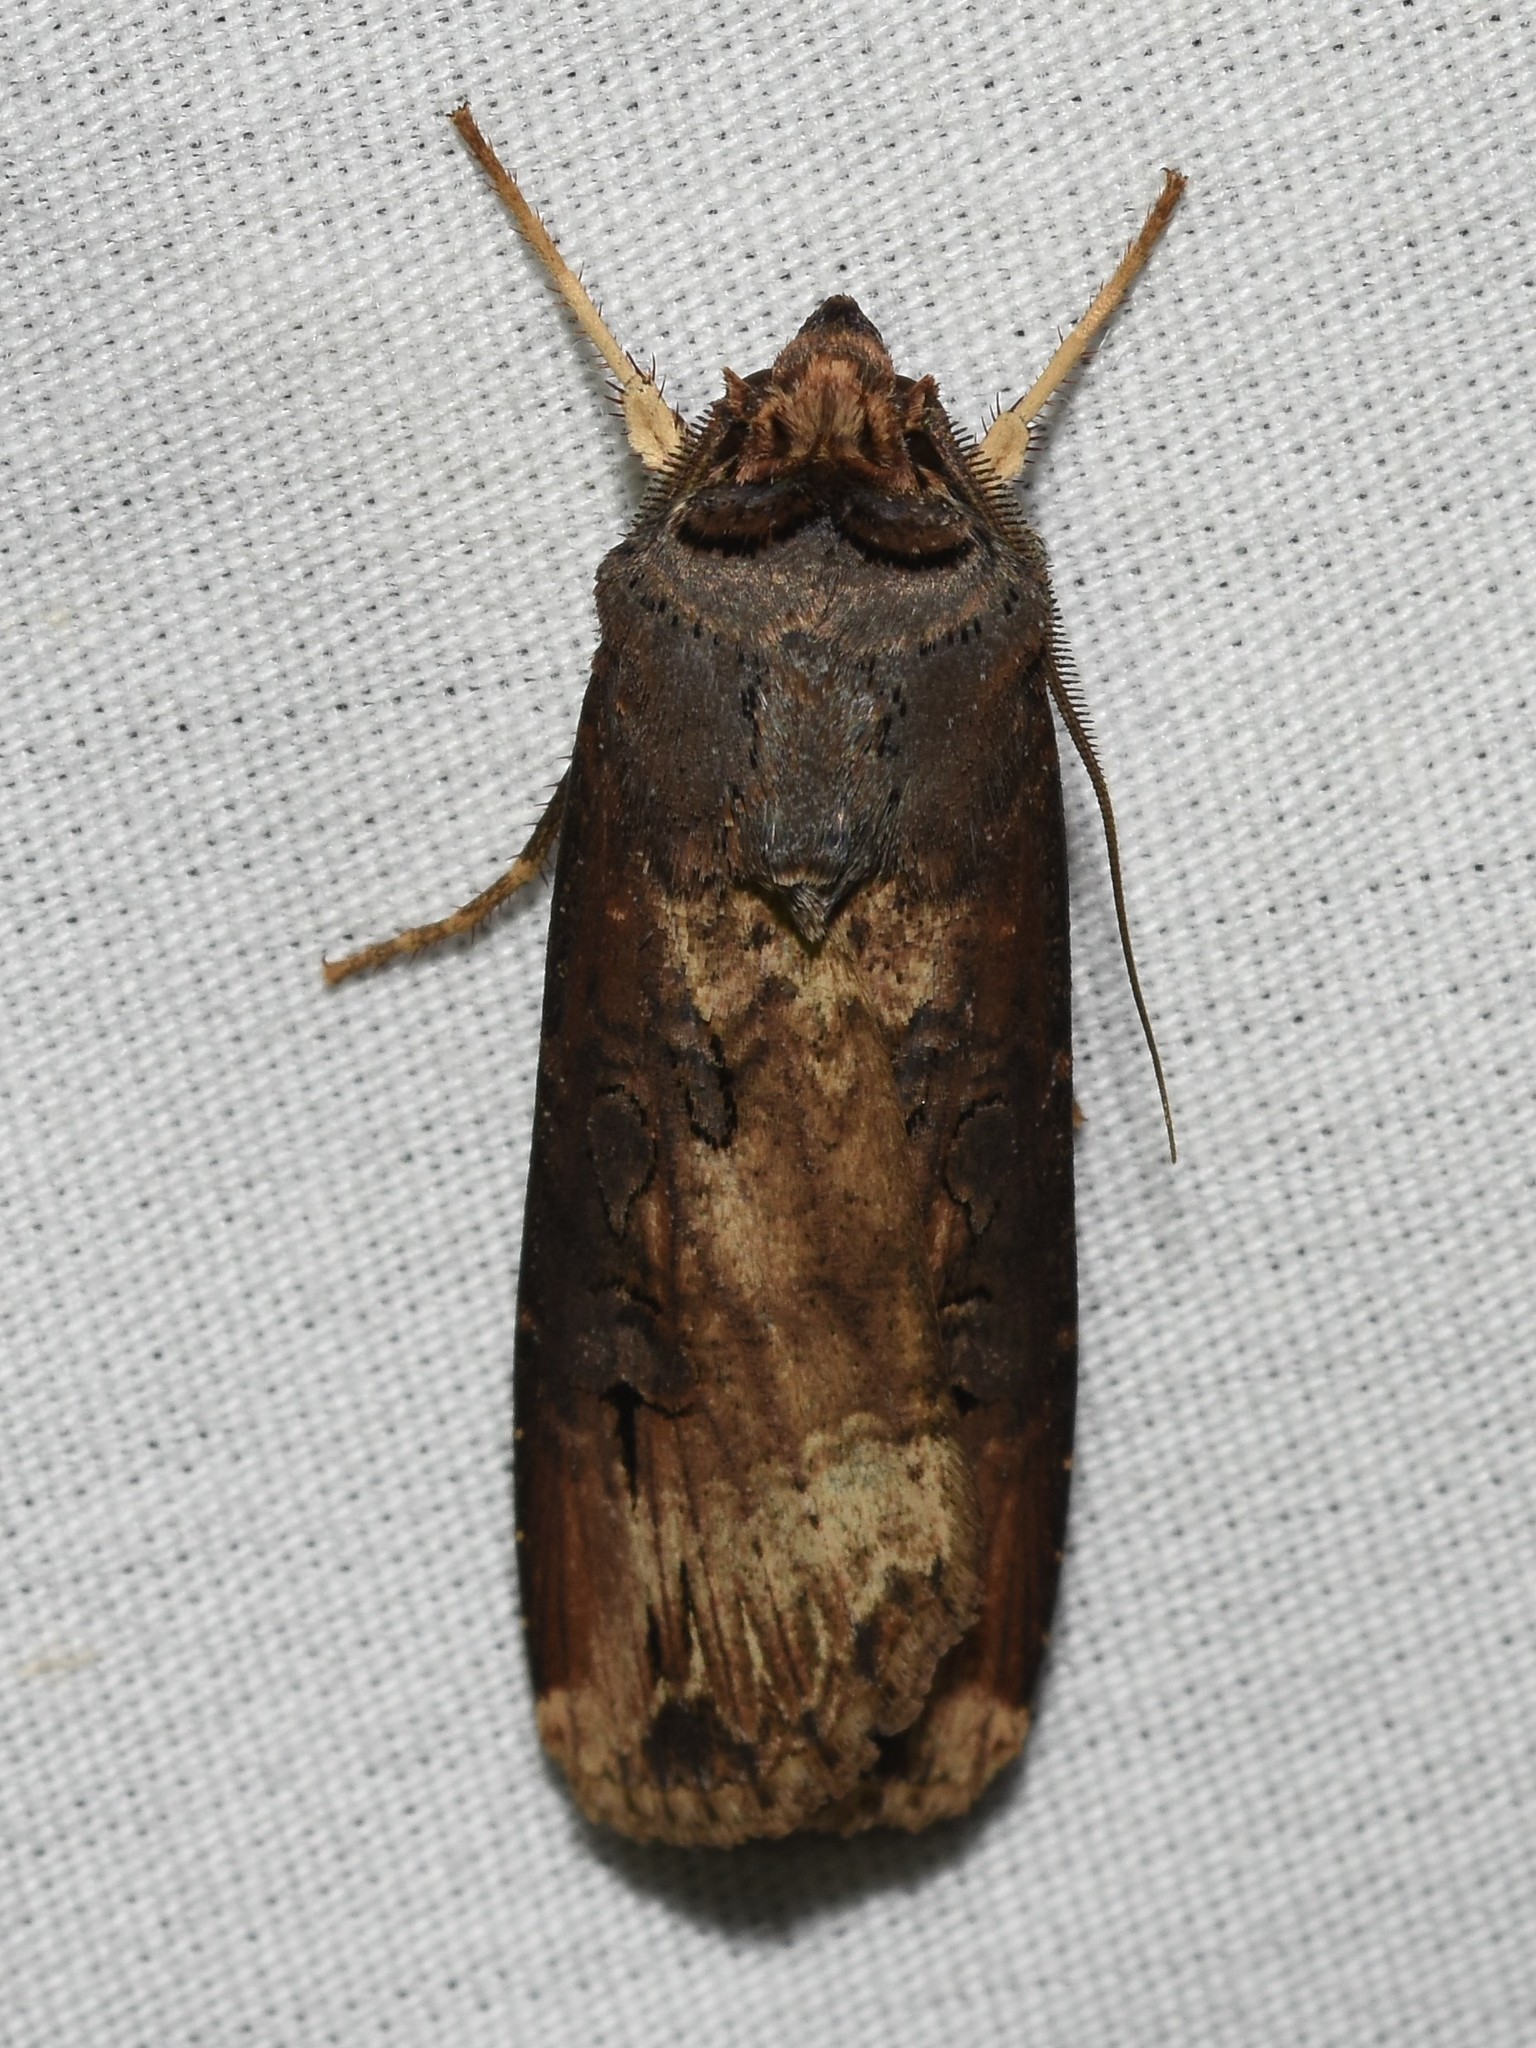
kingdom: Animalia
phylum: Arthropoda
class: Insecta
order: Lepidoptera
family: Noctuidae
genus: Agrotis
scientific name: Agrotis ipsilon
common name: Dark sword-grass
